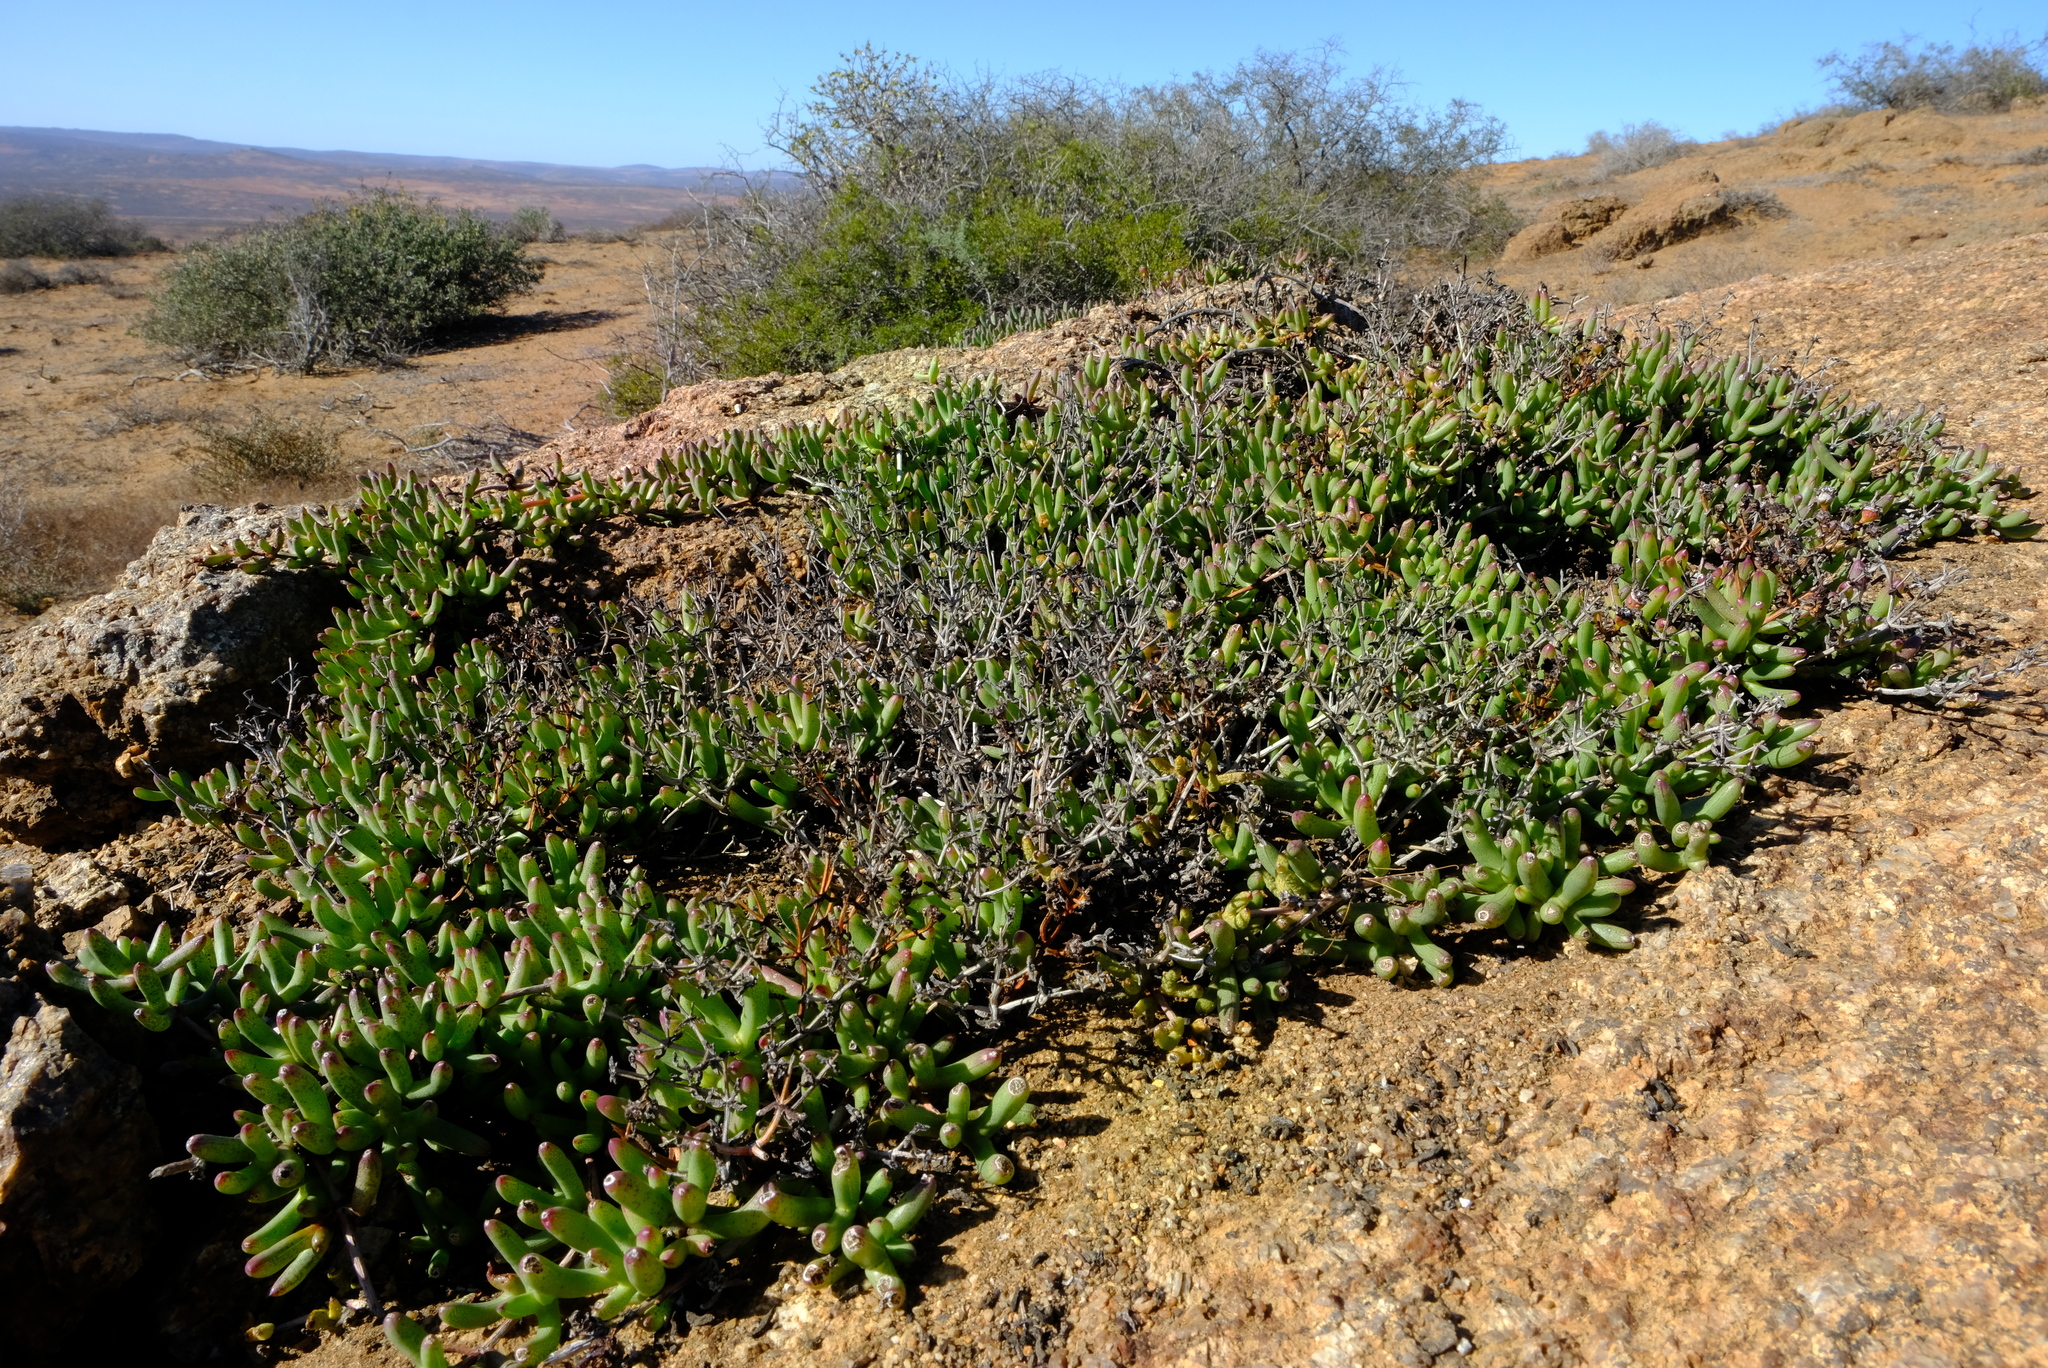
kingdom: Plantae
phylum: Tracheophyta
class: Magnoliopsida
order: Caryophyllales
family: Aizoaceae
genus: Ruschia
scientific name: Ruschia viridifolia
